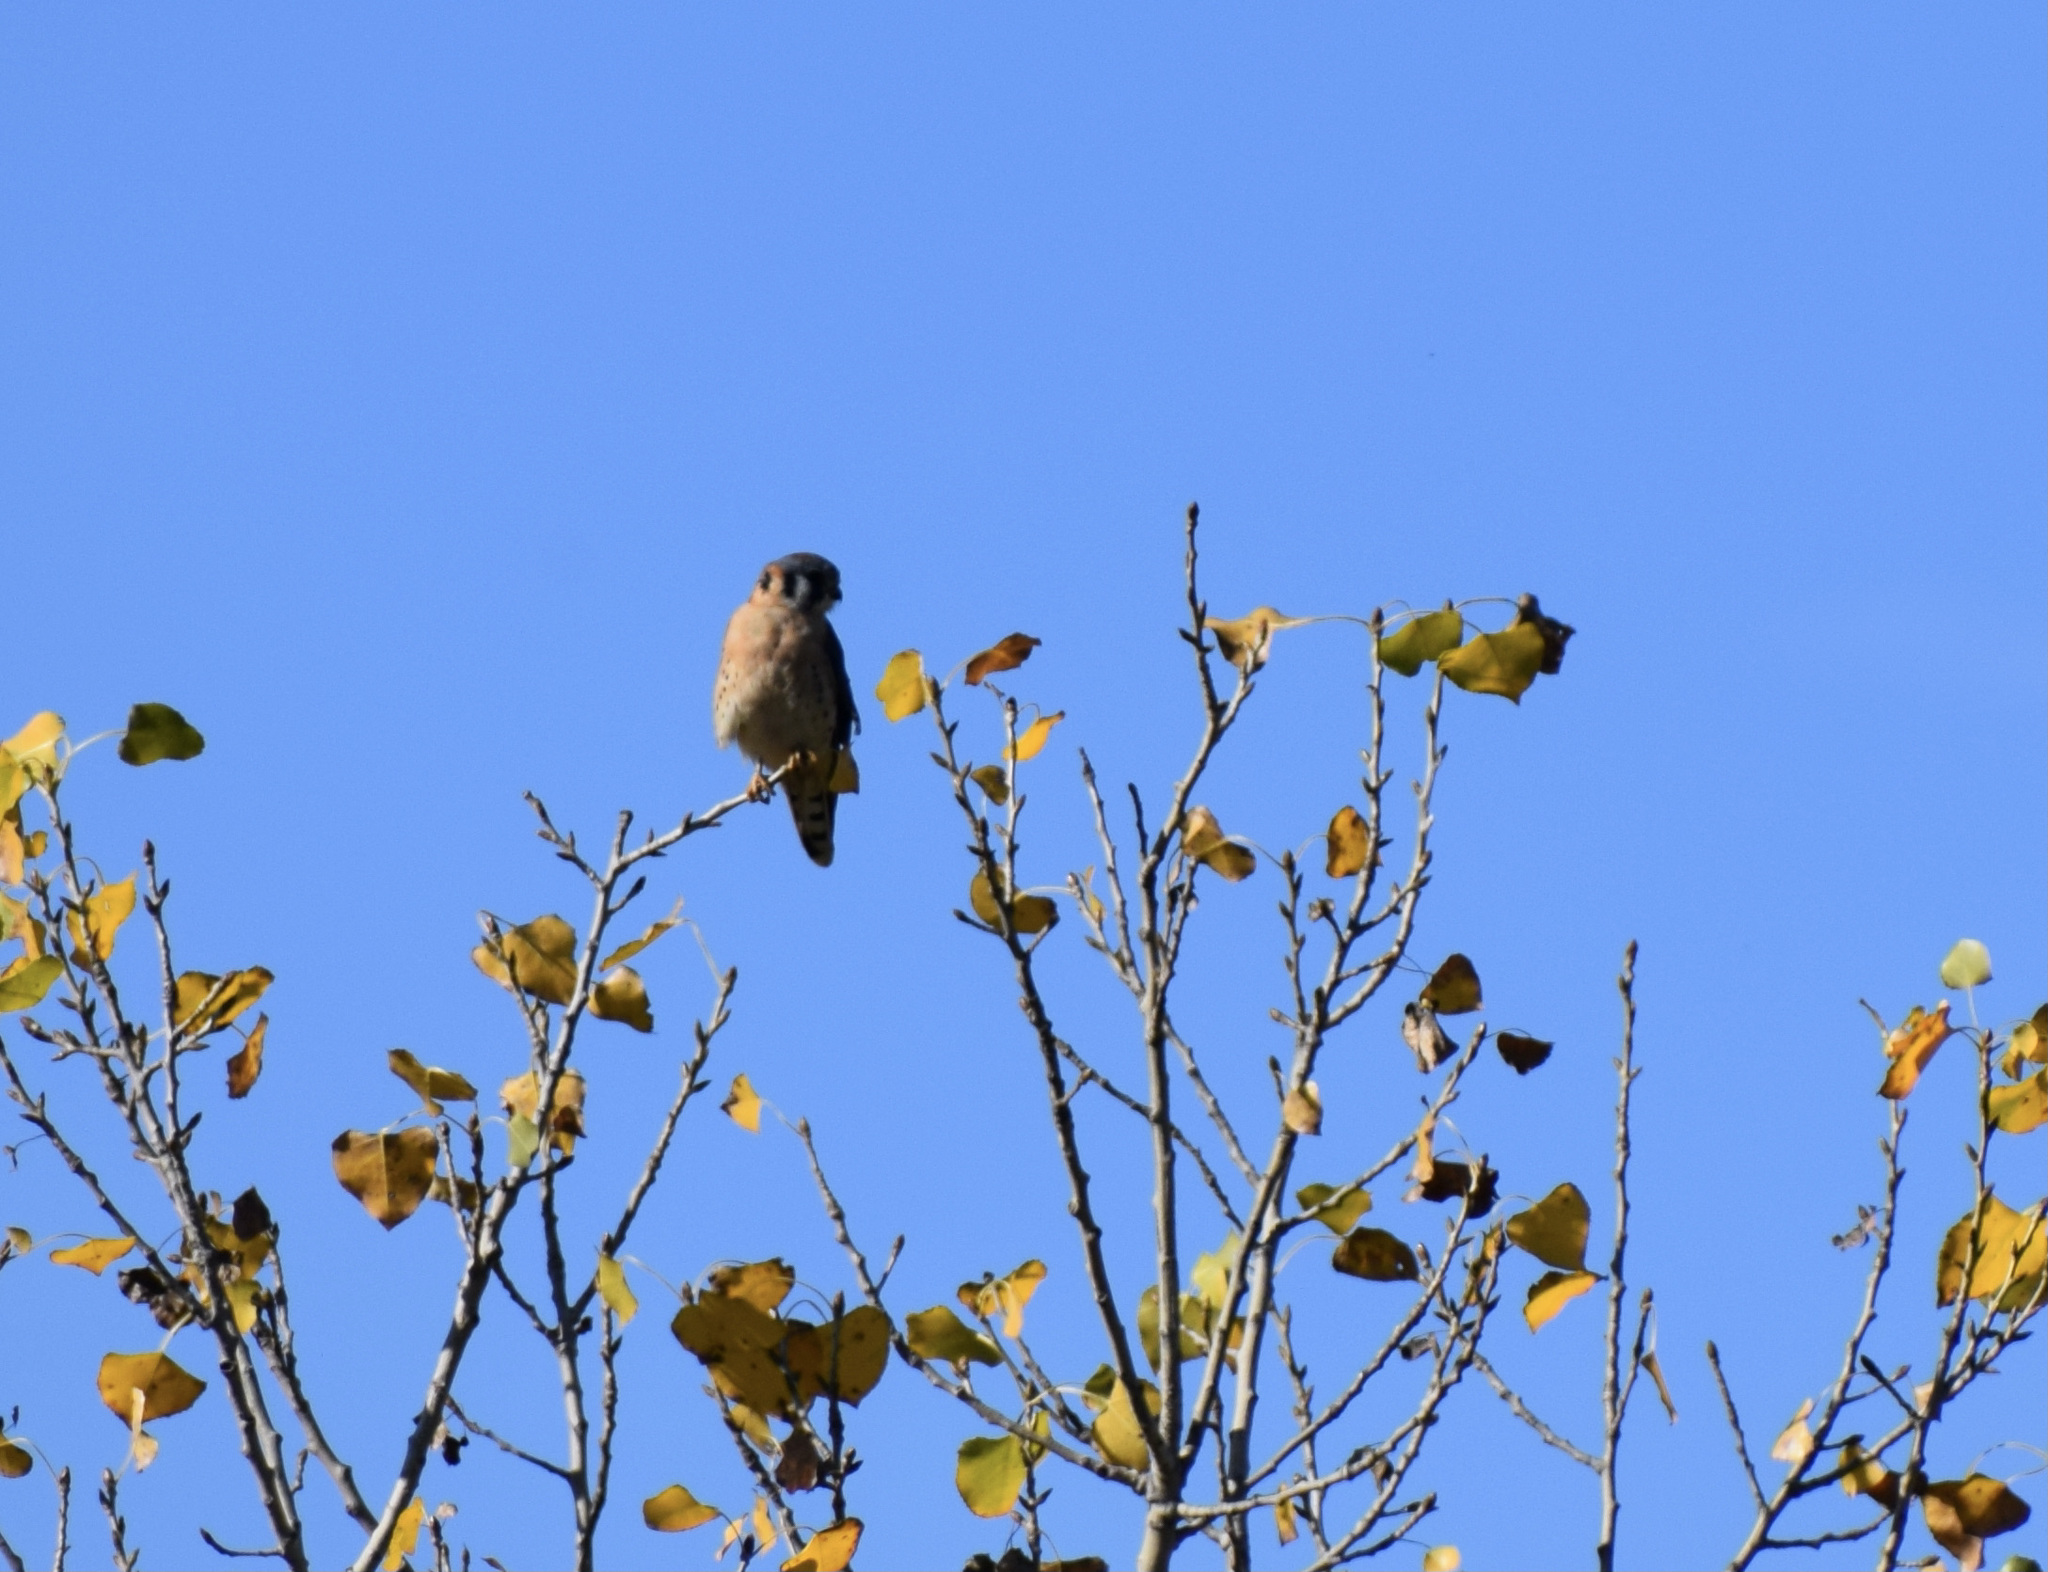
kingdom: Animalia
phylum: Chordata
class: Aves
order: Falconiformes
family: Falconidae
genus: Falco
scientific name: Falco sparverius
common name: American kestrel
